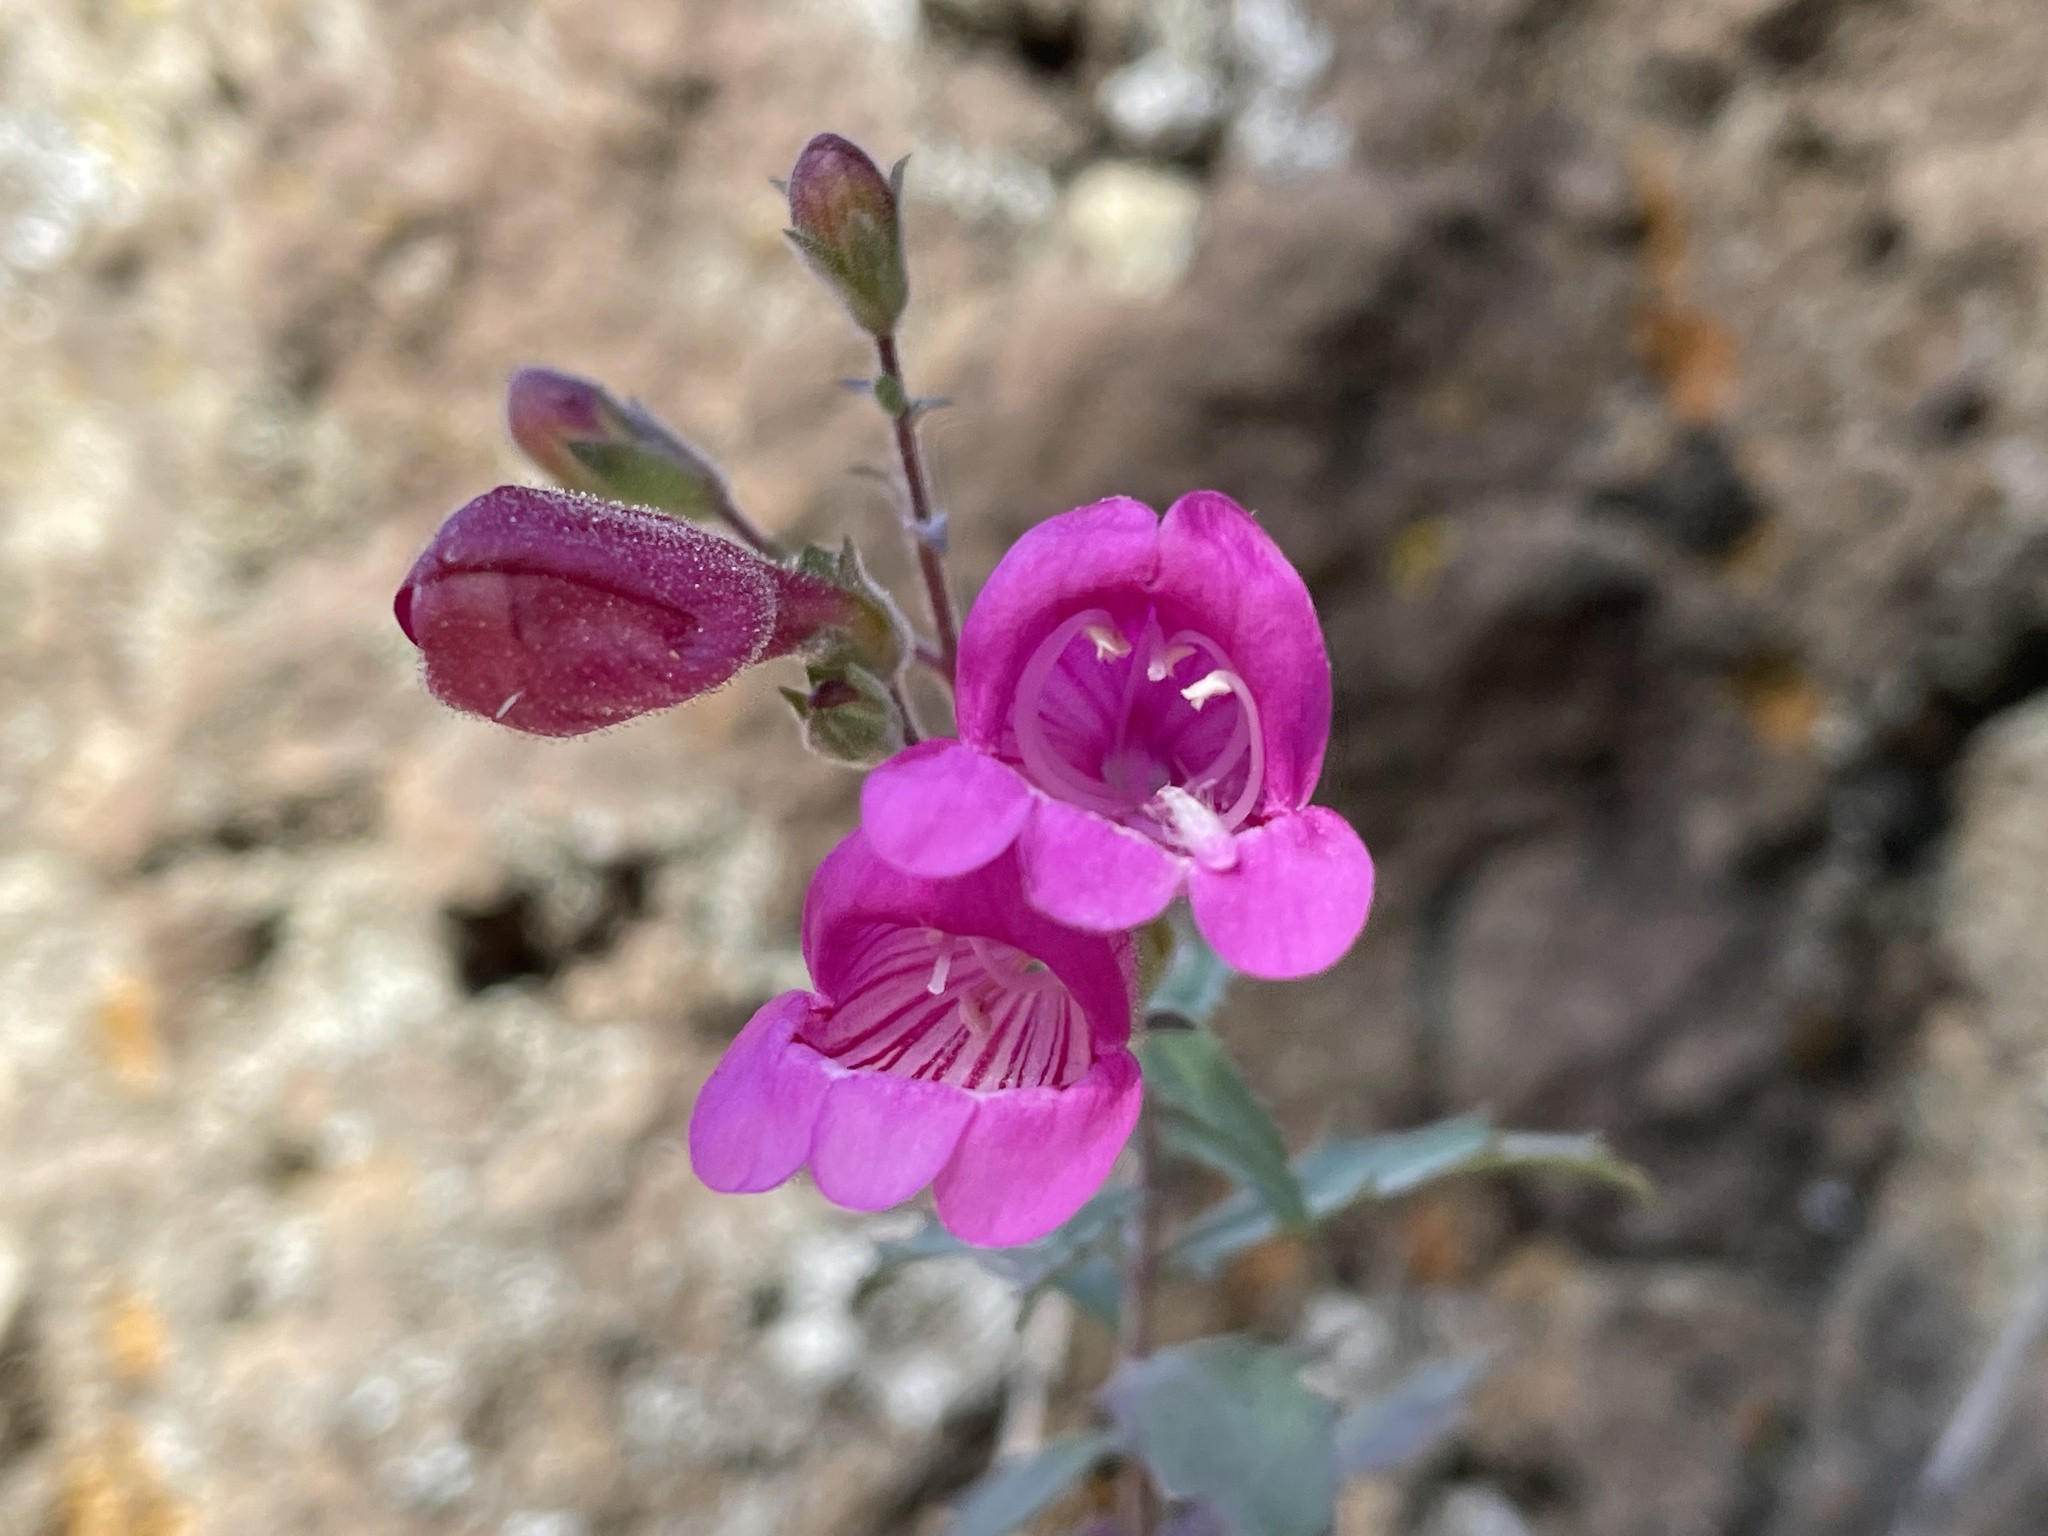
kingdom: Plantae
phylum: Tracheophyta
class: Magnoliopsida
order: Lamiales
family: Plantaginaceae
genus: Penstemon
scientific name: Penstemon richardsonii
